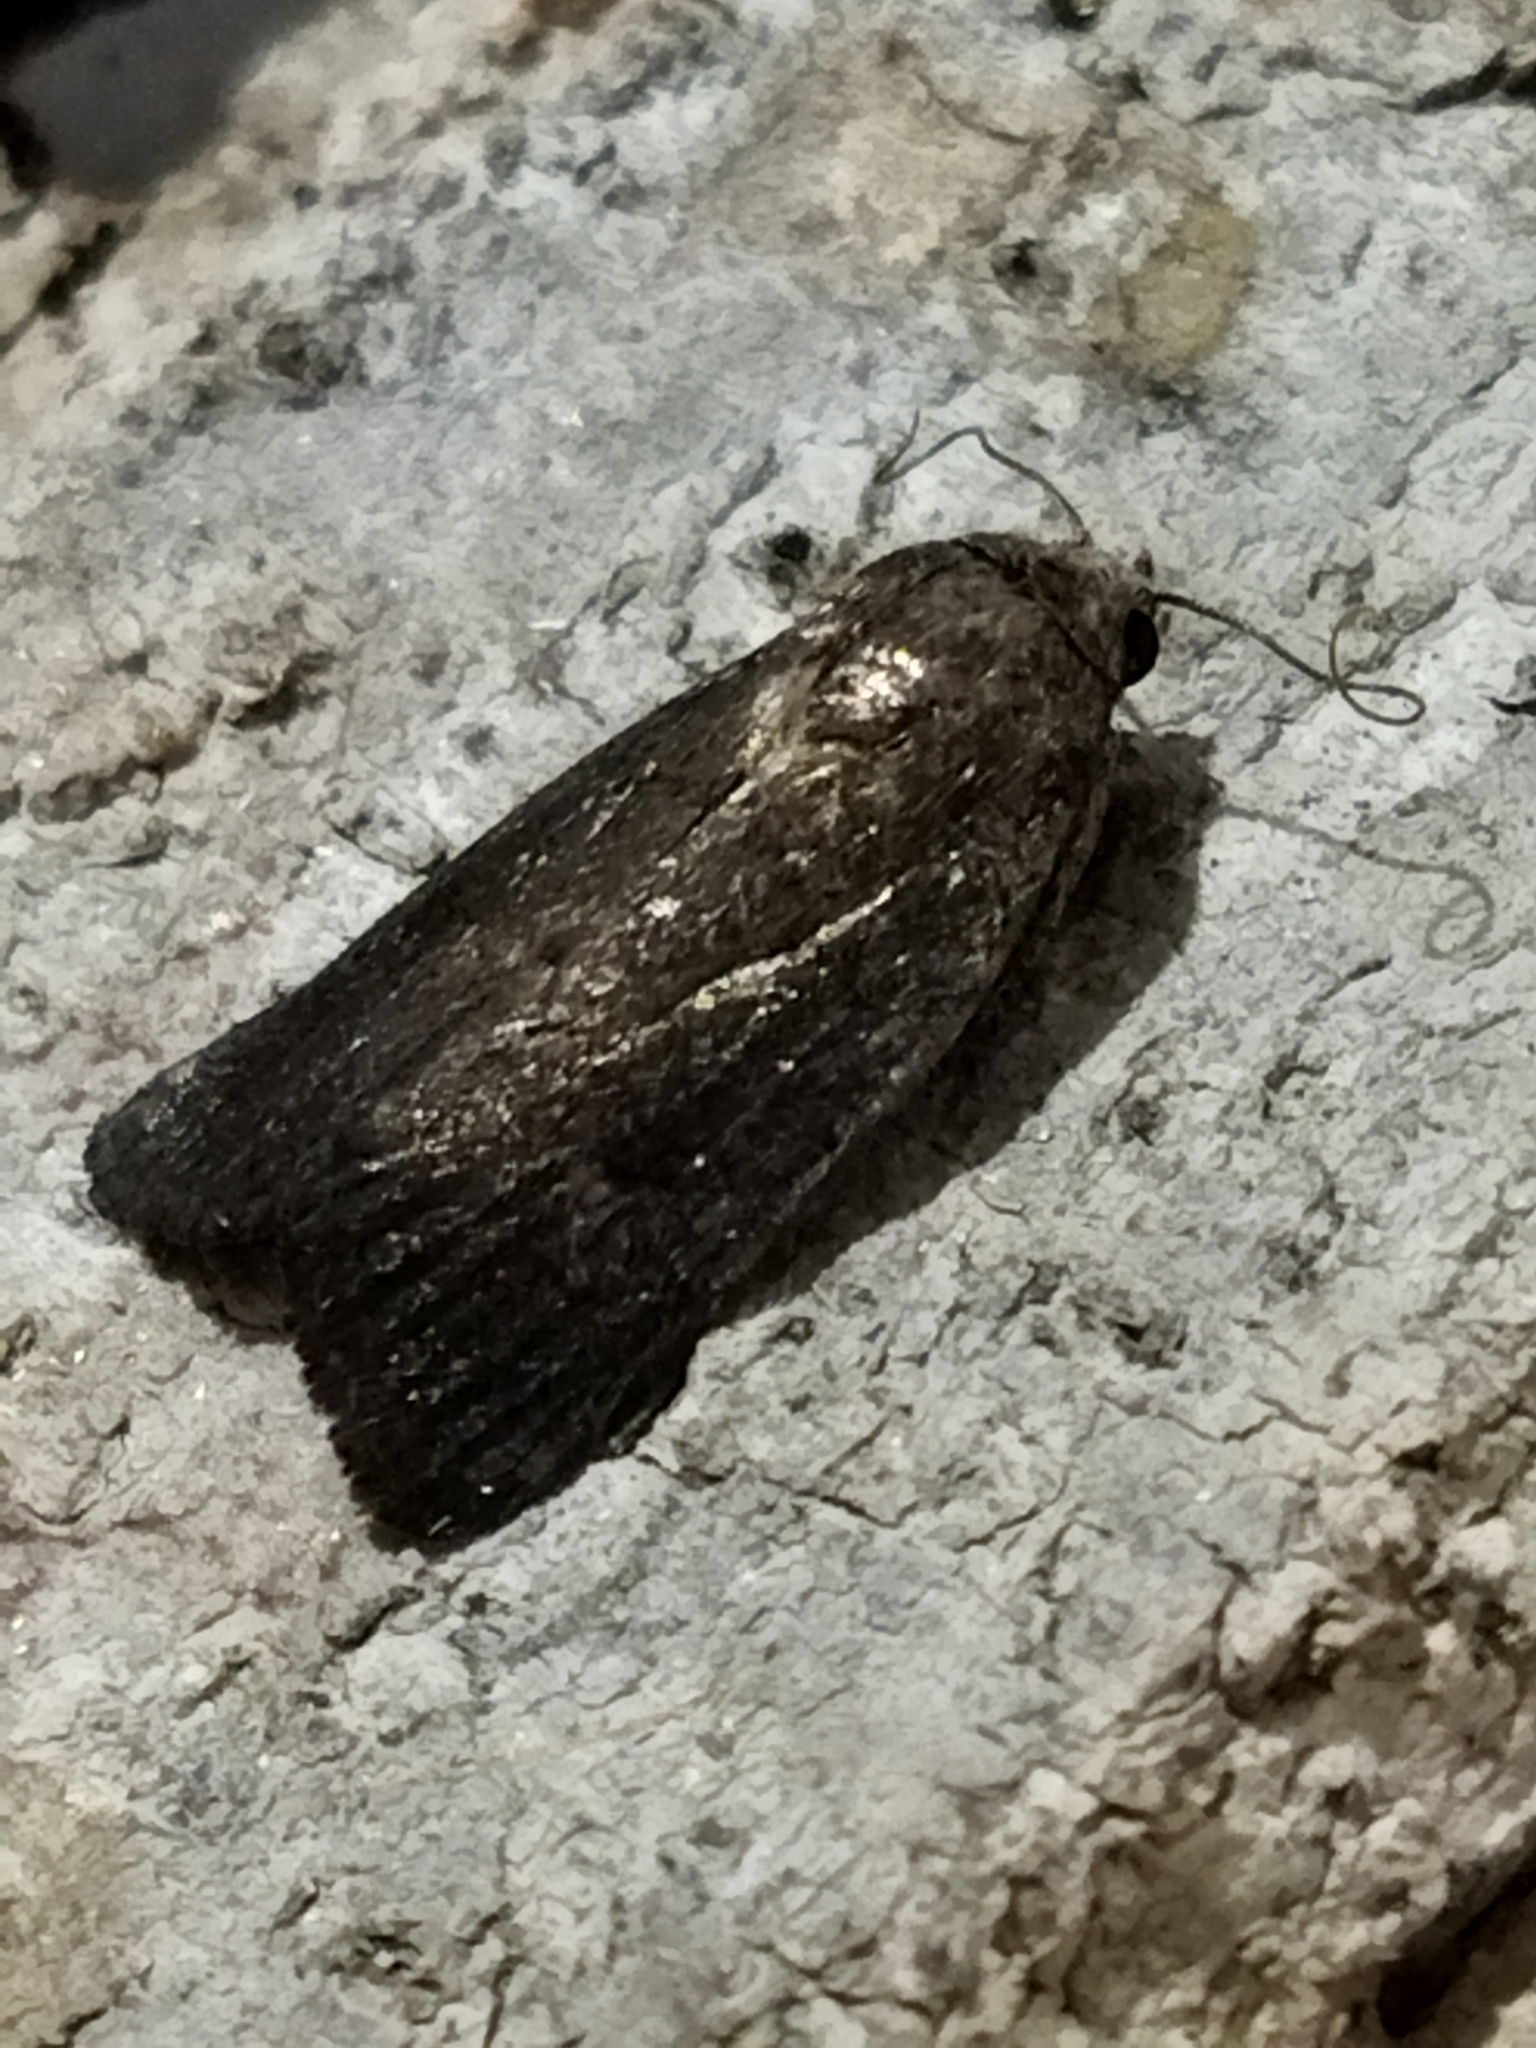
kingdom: Animalia
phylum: Arthropoda
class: Insecta
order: Lepidoptera
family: Noctuidae
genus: Athetis
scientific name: Athetis hospes
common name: Porter's rustic
